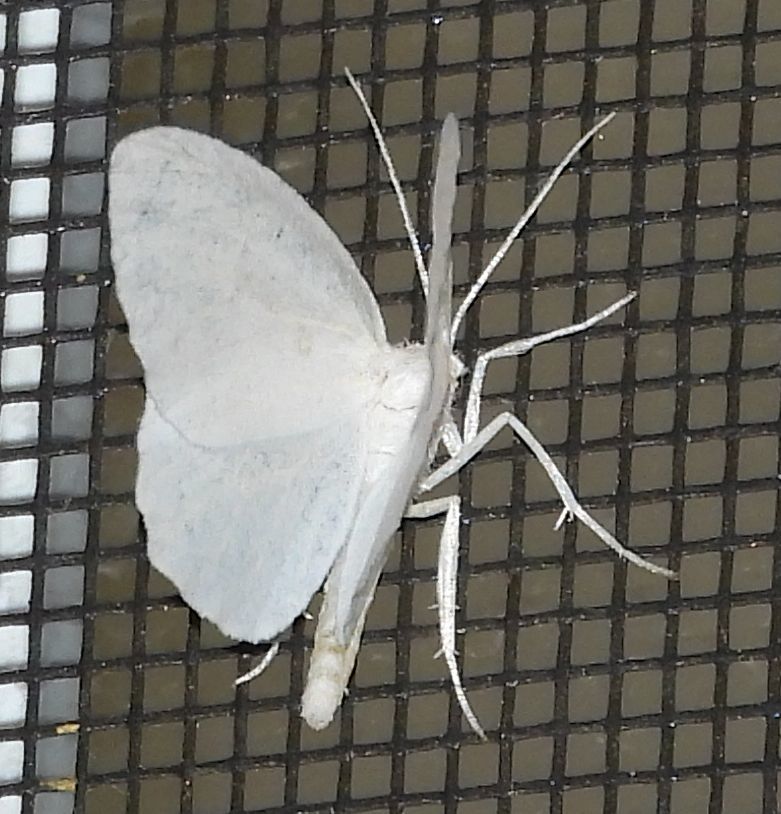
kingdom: Animalia
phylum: Arthropoda
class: Insecta
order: Lepidoptera
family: Geometridae
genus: Eugonobapta
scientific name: Eugonobapta nivosaria
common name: Snowy geometer
